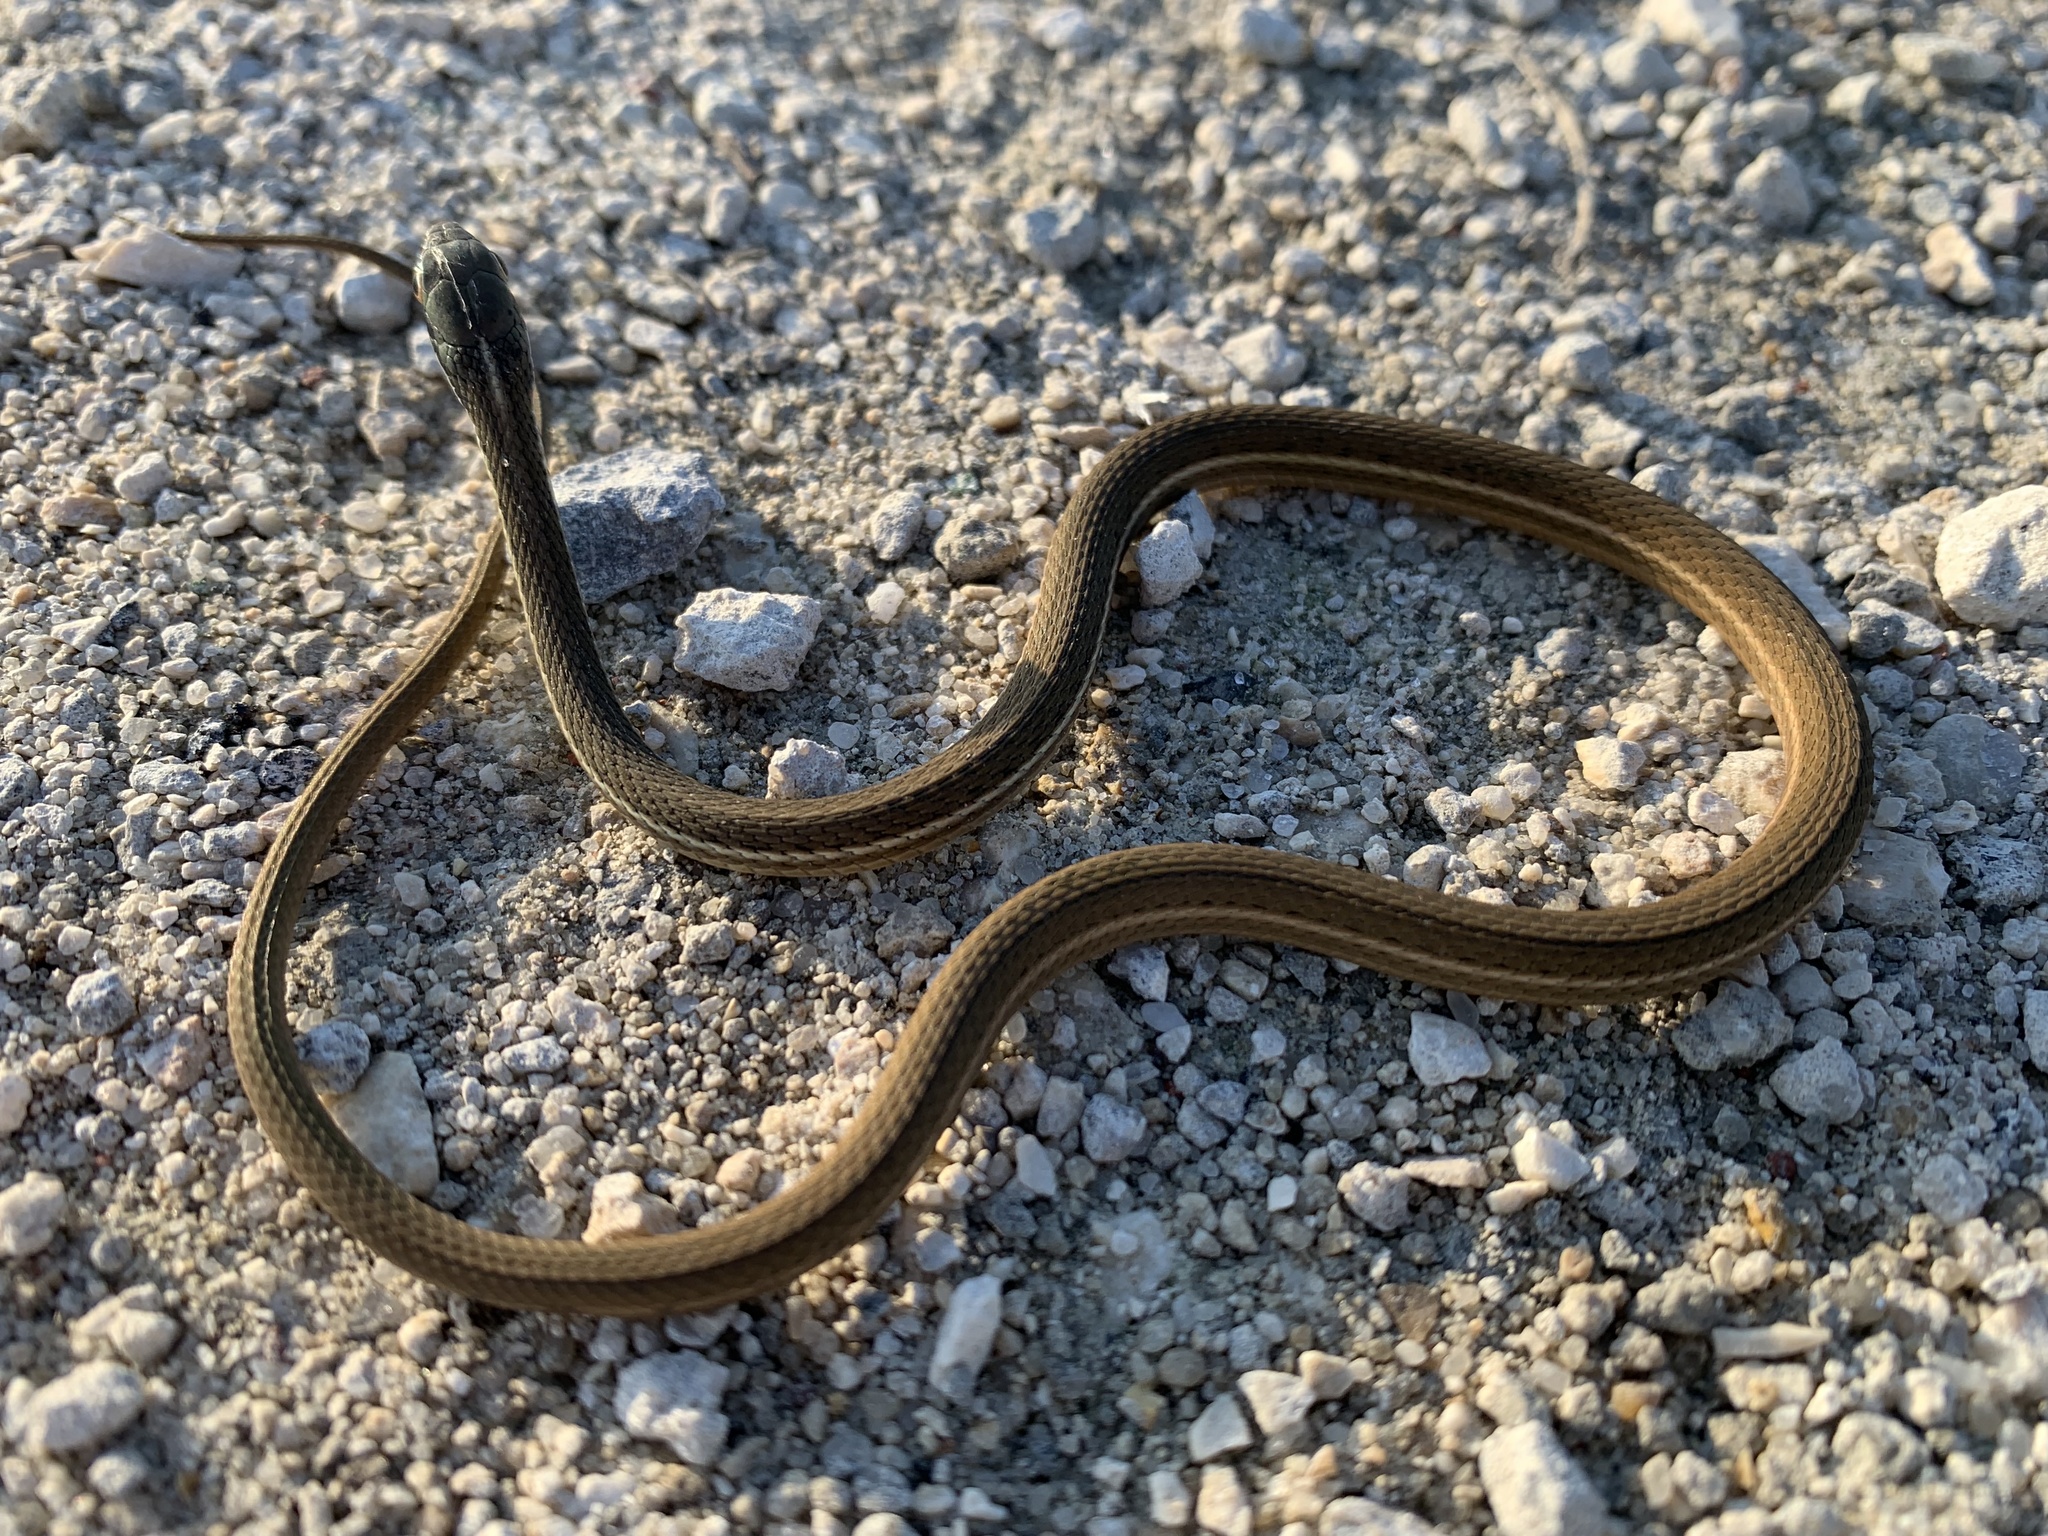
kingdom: Animalia
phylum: Chordata
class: Squamata
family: Colubridae
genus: Thamnophis
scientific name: Thamnophis saurita
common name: Eastern ribbonsnake
